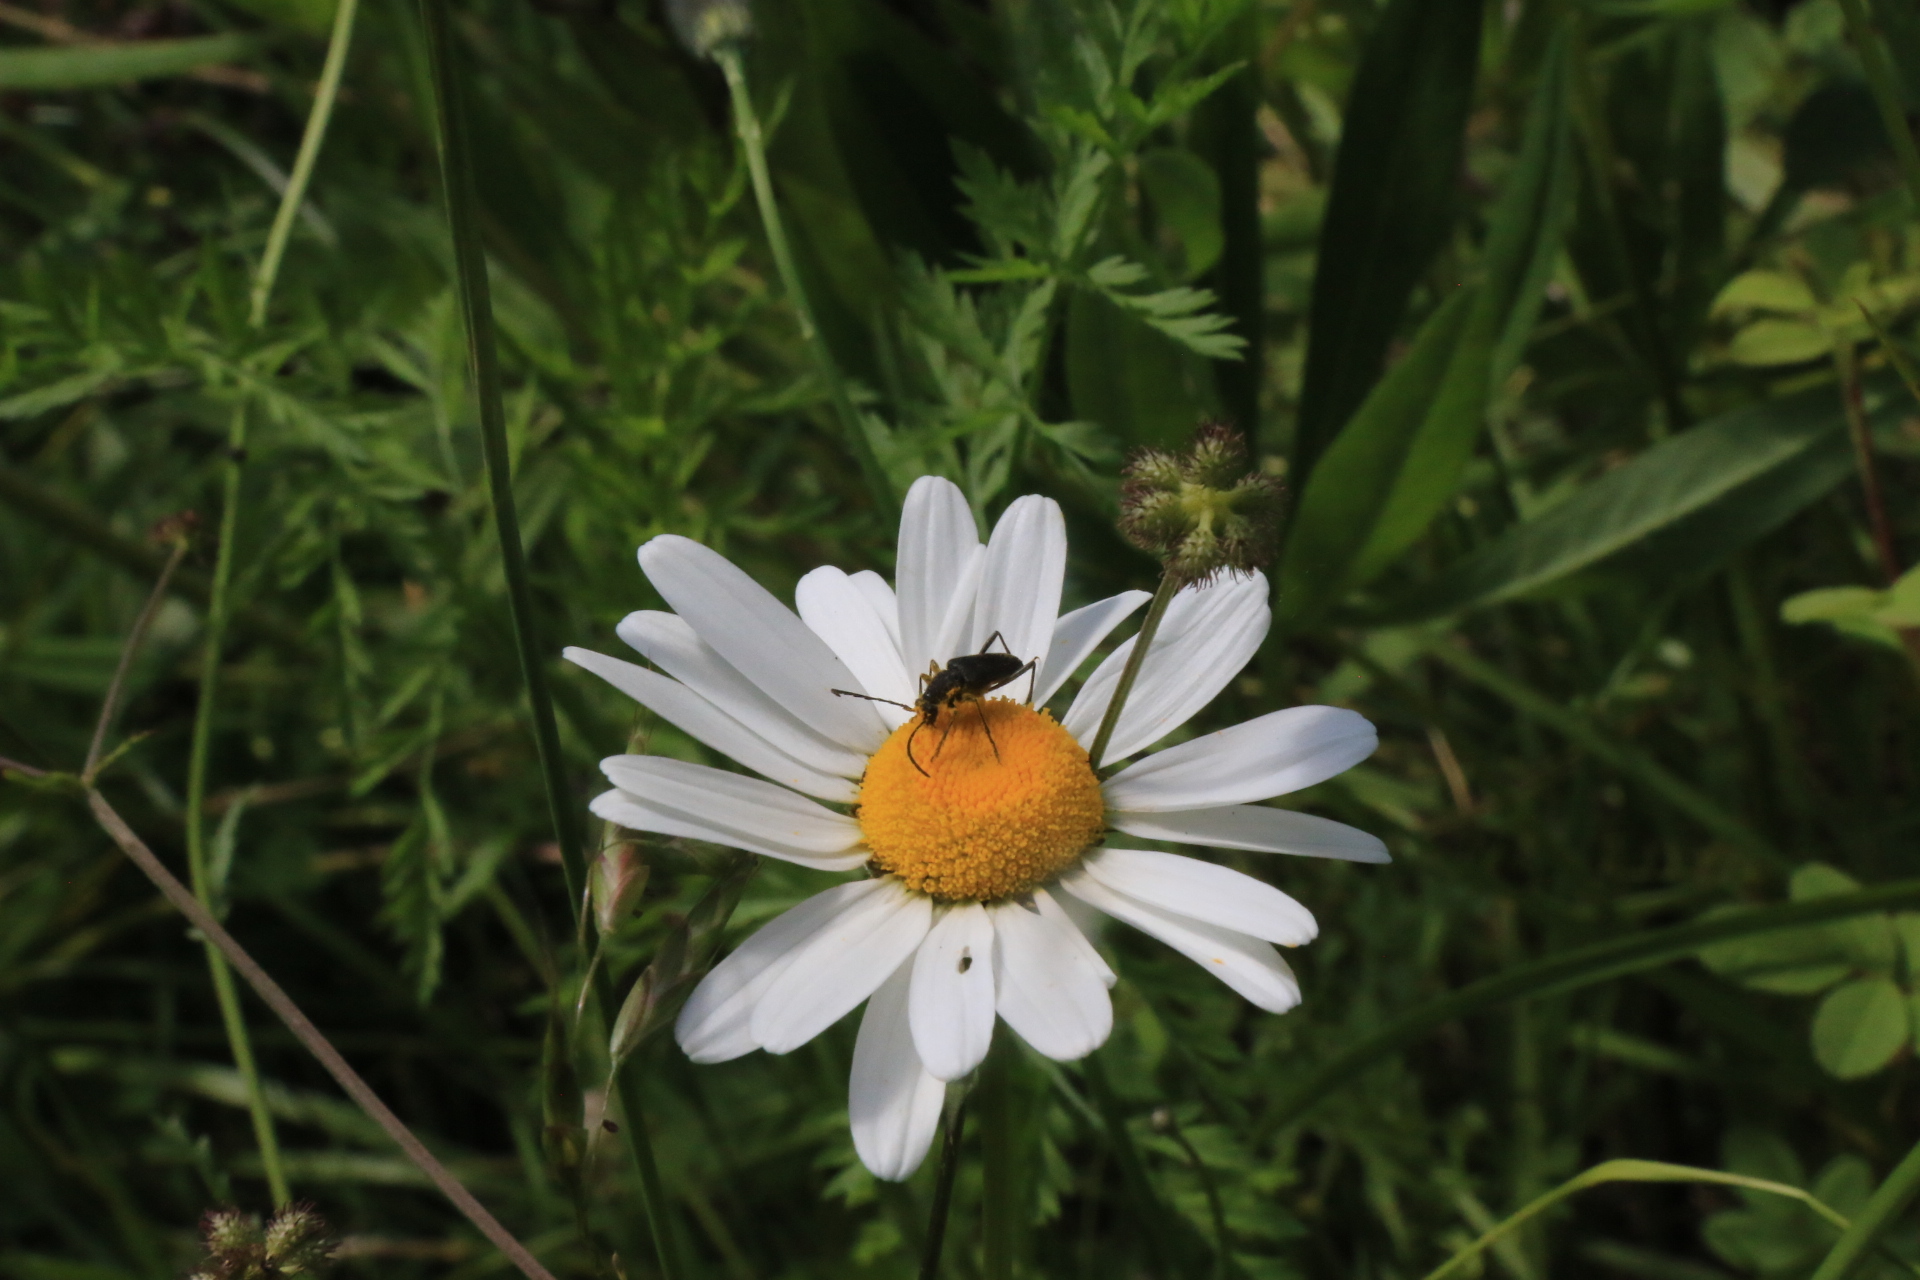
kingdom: Animalia
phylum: Arthropoda
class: Insecta
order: Coleoptera
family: Cerambycidae
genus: Anastrangalia
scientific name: Anastrangalia laetifica
